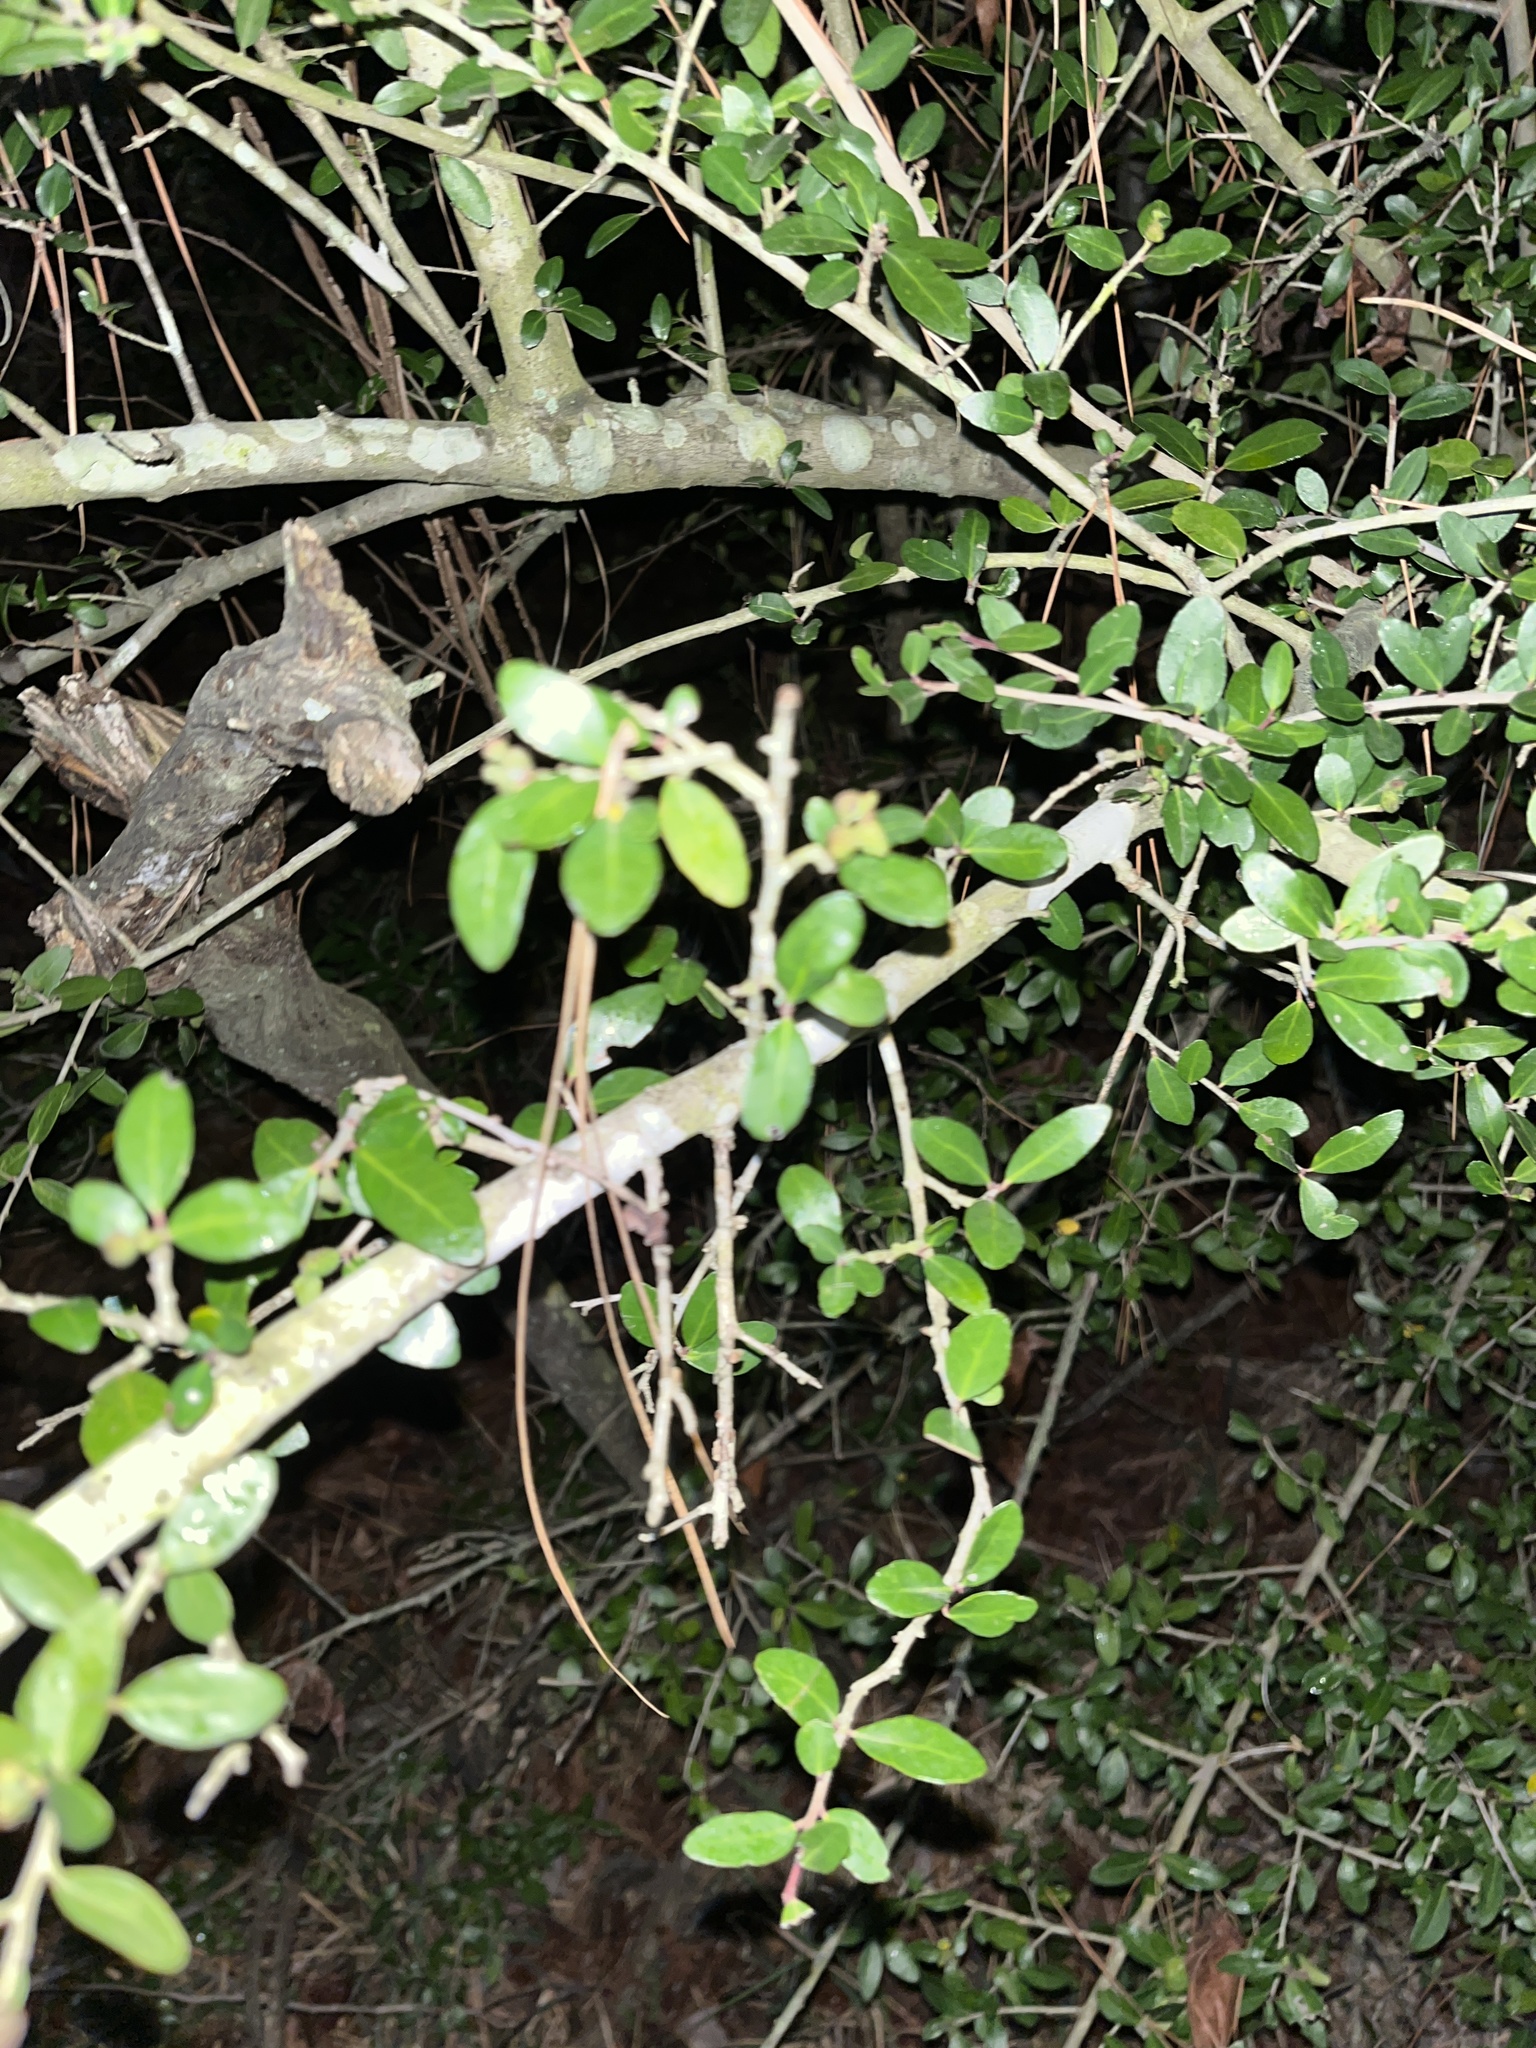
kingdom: Plantae
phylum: Tracheophyta
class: Magnoliopsida
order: Aquifoliales
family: Aquifoliaceae
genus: Ilex
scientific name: Ilex vomitoria
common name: Yaupon holly
